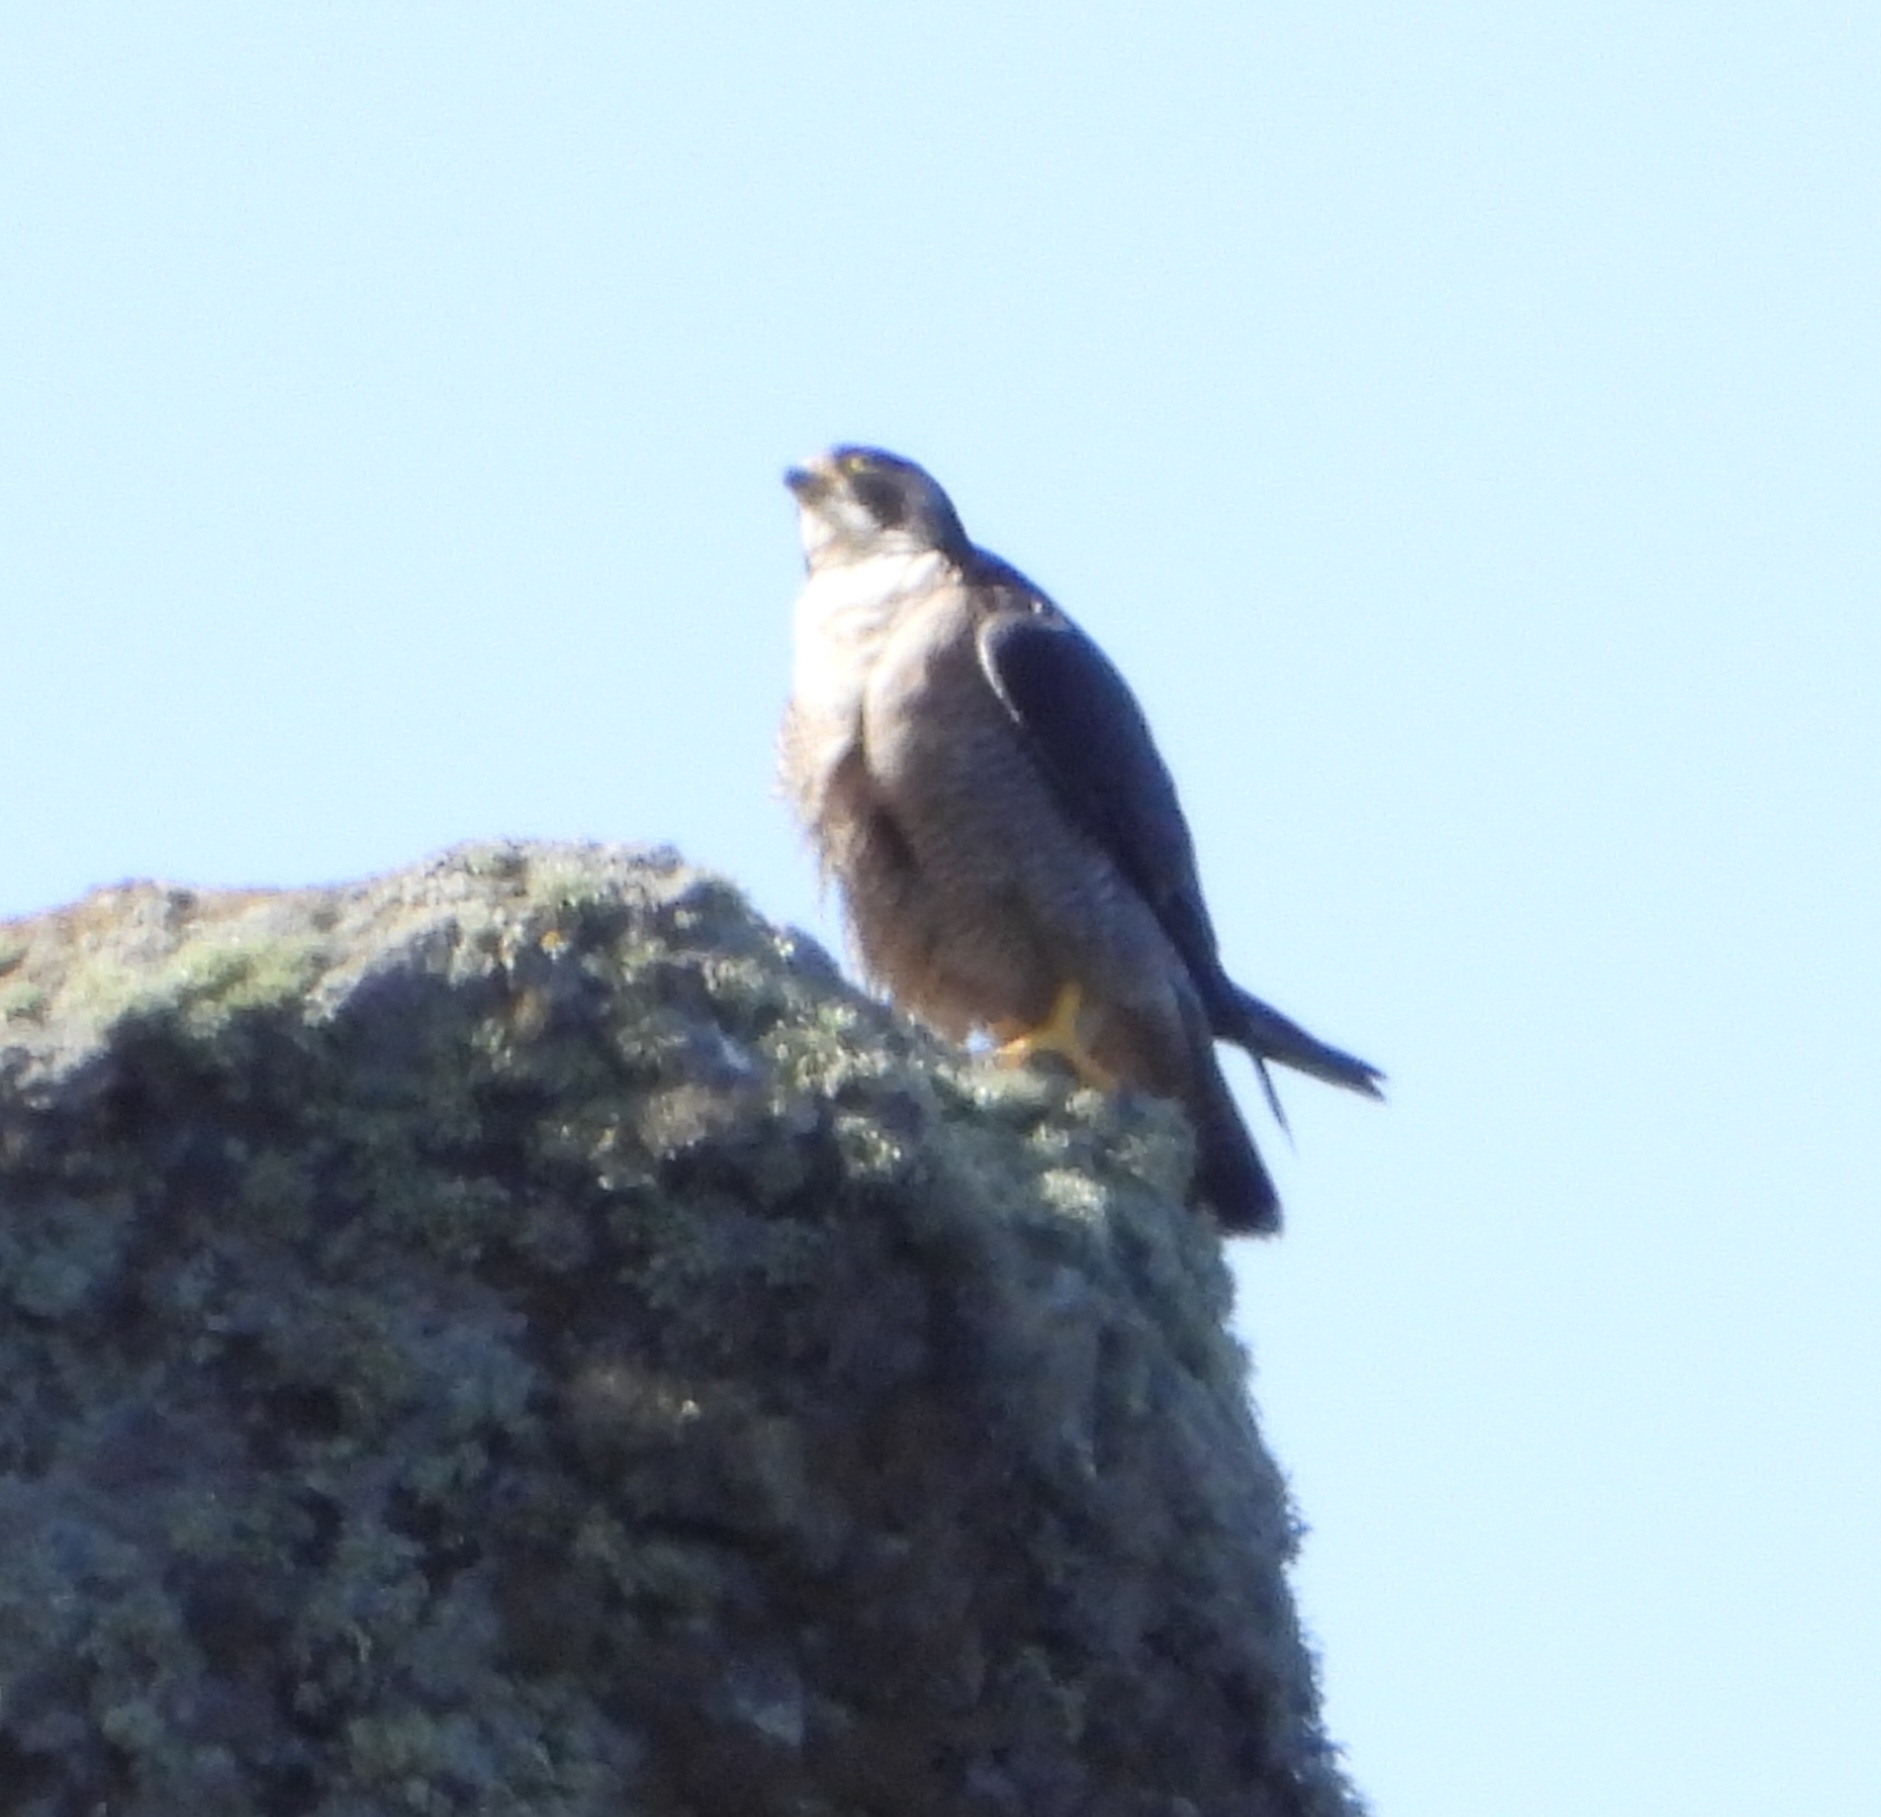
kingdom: Animalia
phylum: Chordata
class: Aves
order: Falconiformes
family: Falconidae
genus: Falco
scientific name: Falco peregrinus
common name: Peregrine falcon
